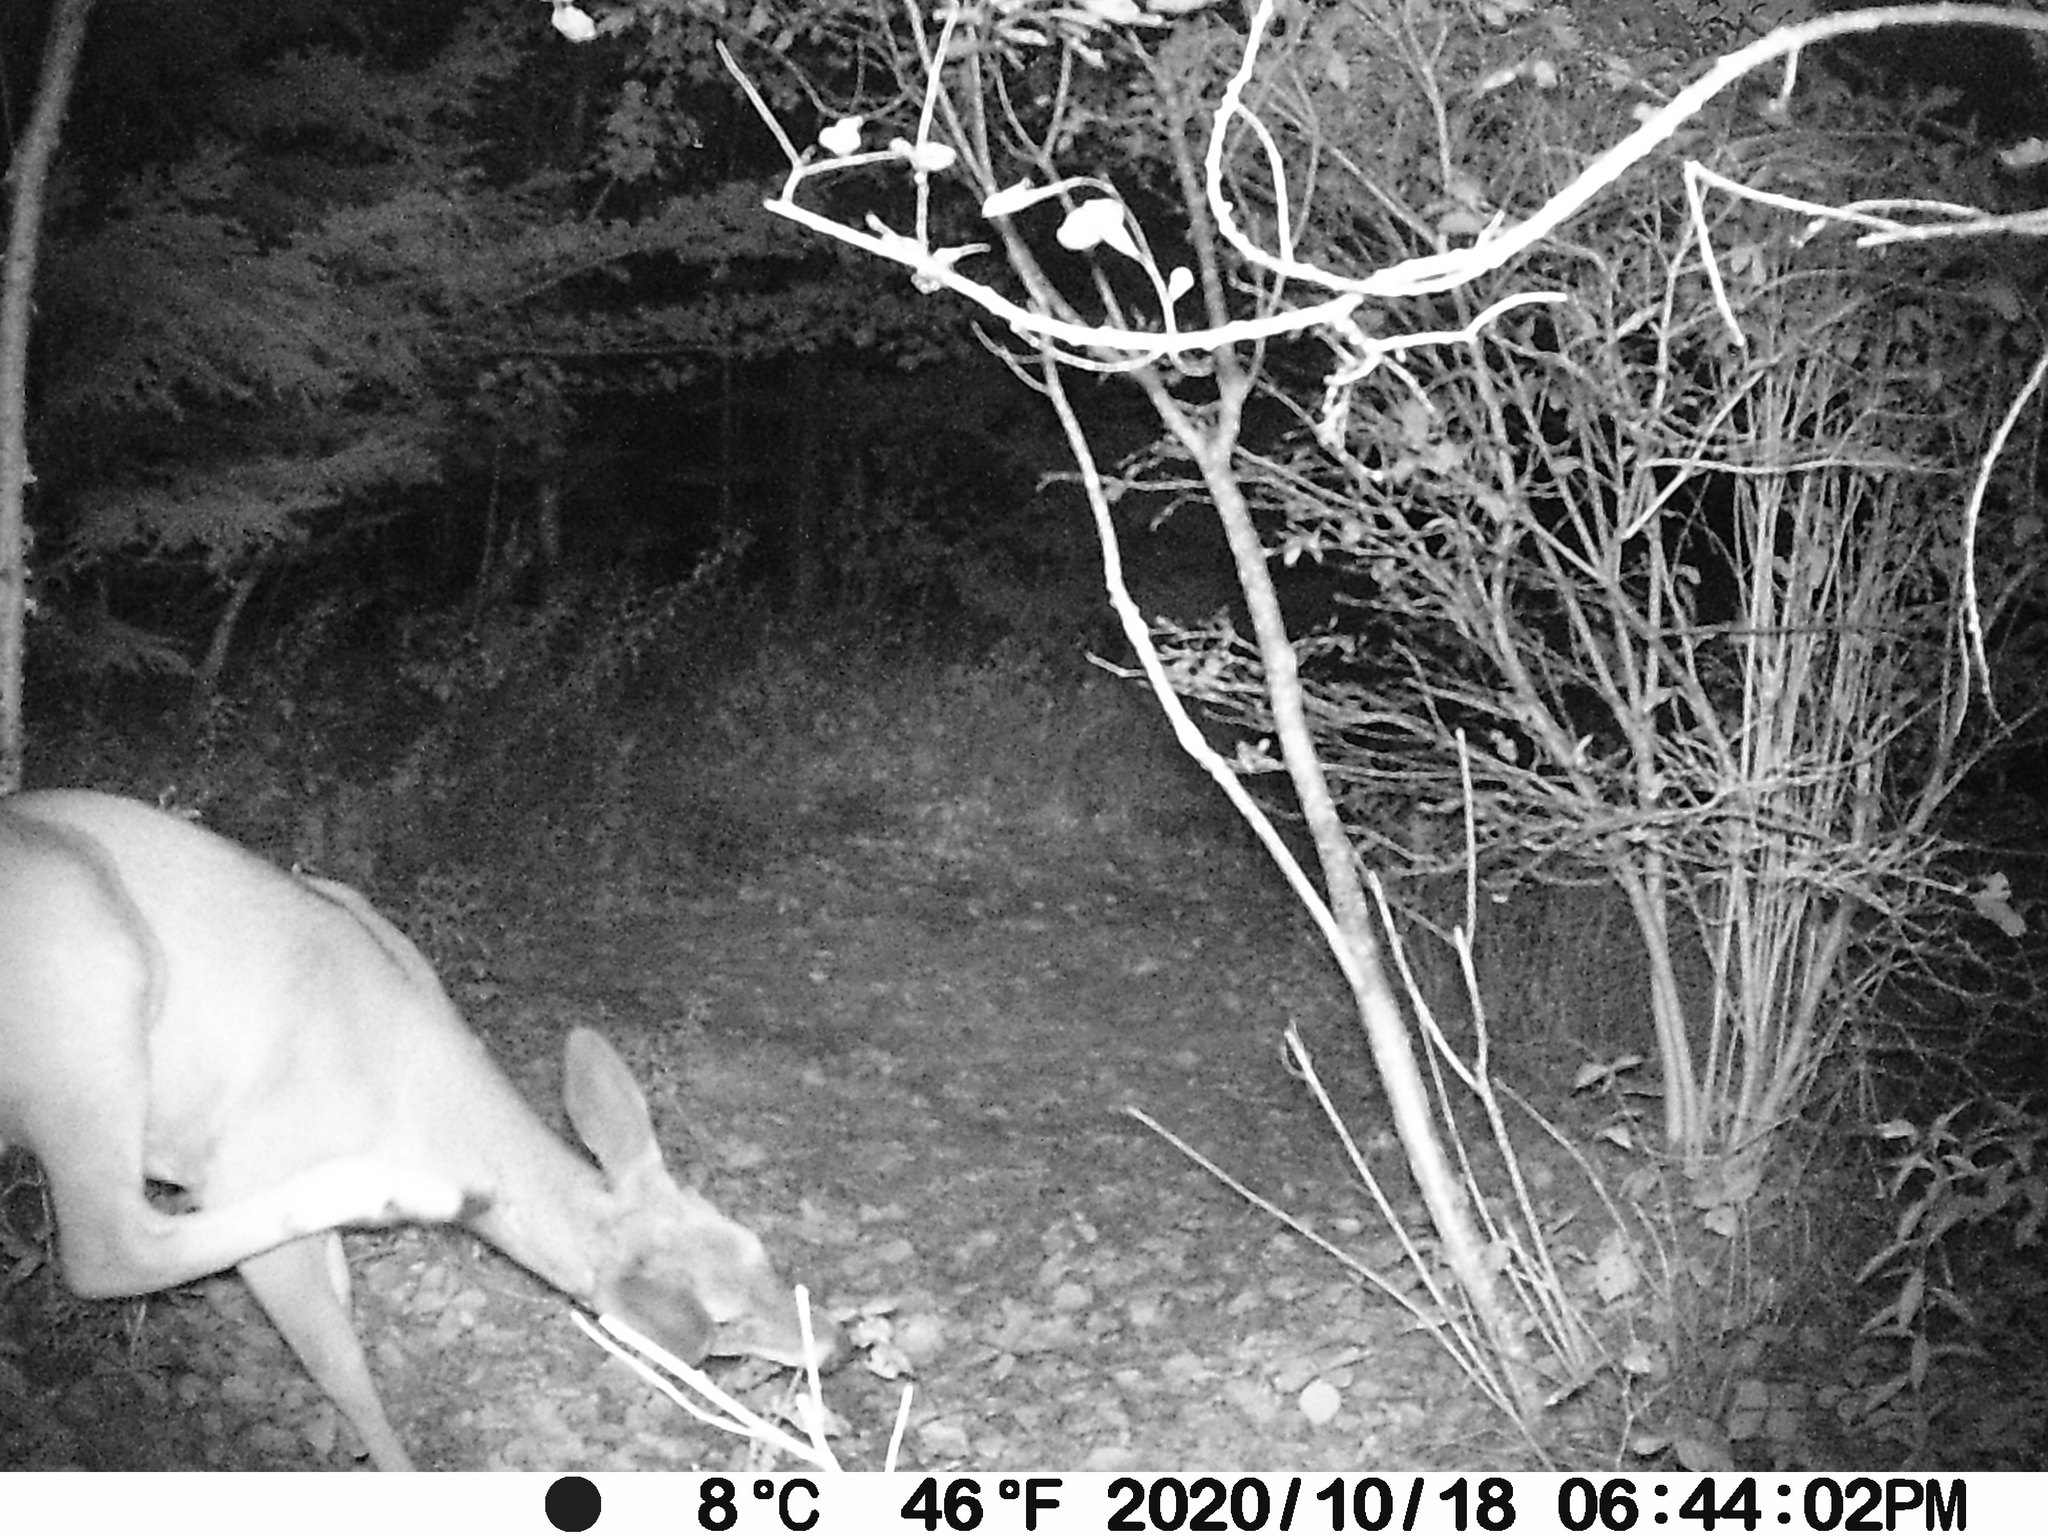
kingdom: Animalia
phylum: Chordata
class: Mammalia
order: Artiodactyla
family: Cervidae
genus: Odocoileus
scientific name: Odocoileus virginianus
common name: White-tailed deer
